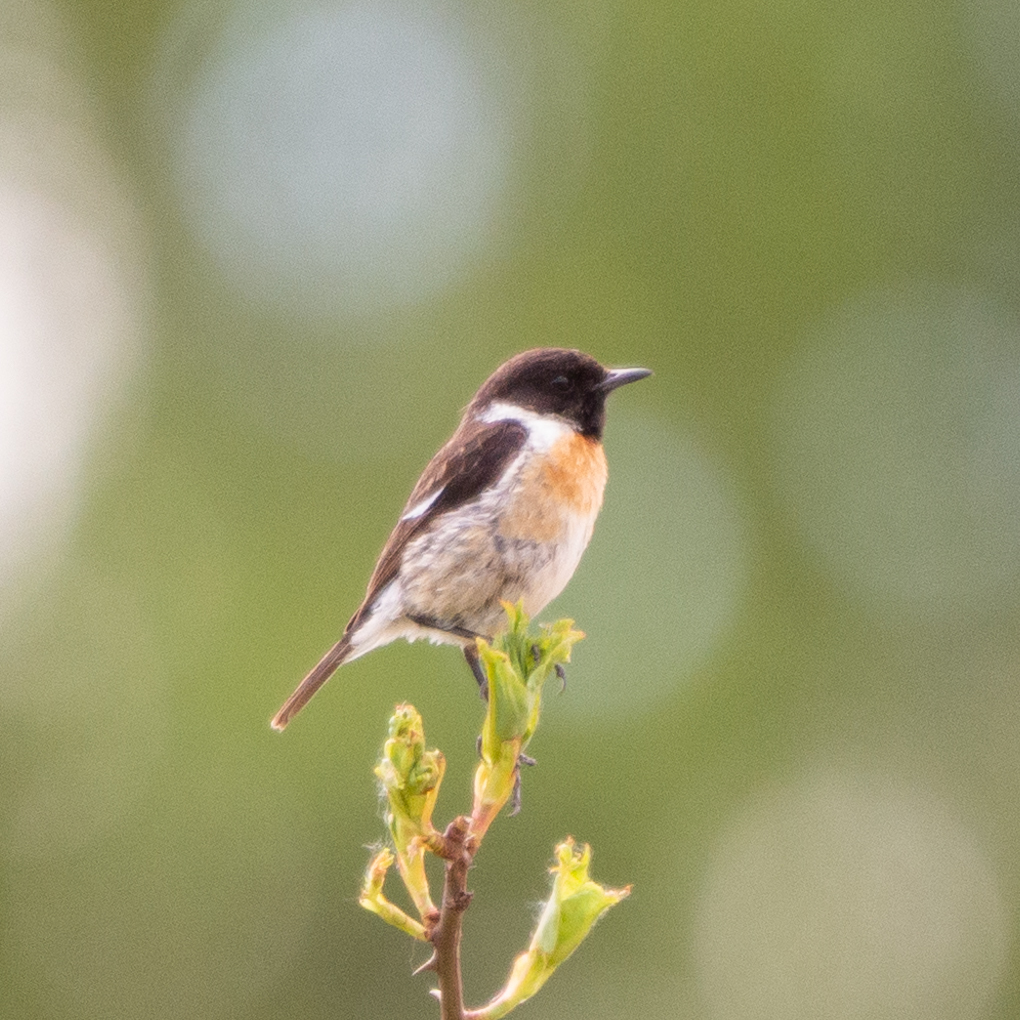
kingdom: Animalia
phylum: Chordata
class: Aves
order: Passeriformes
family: Muscicapidae
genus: Saxicola
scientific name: Saxicola rubicola
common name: European stonechat
